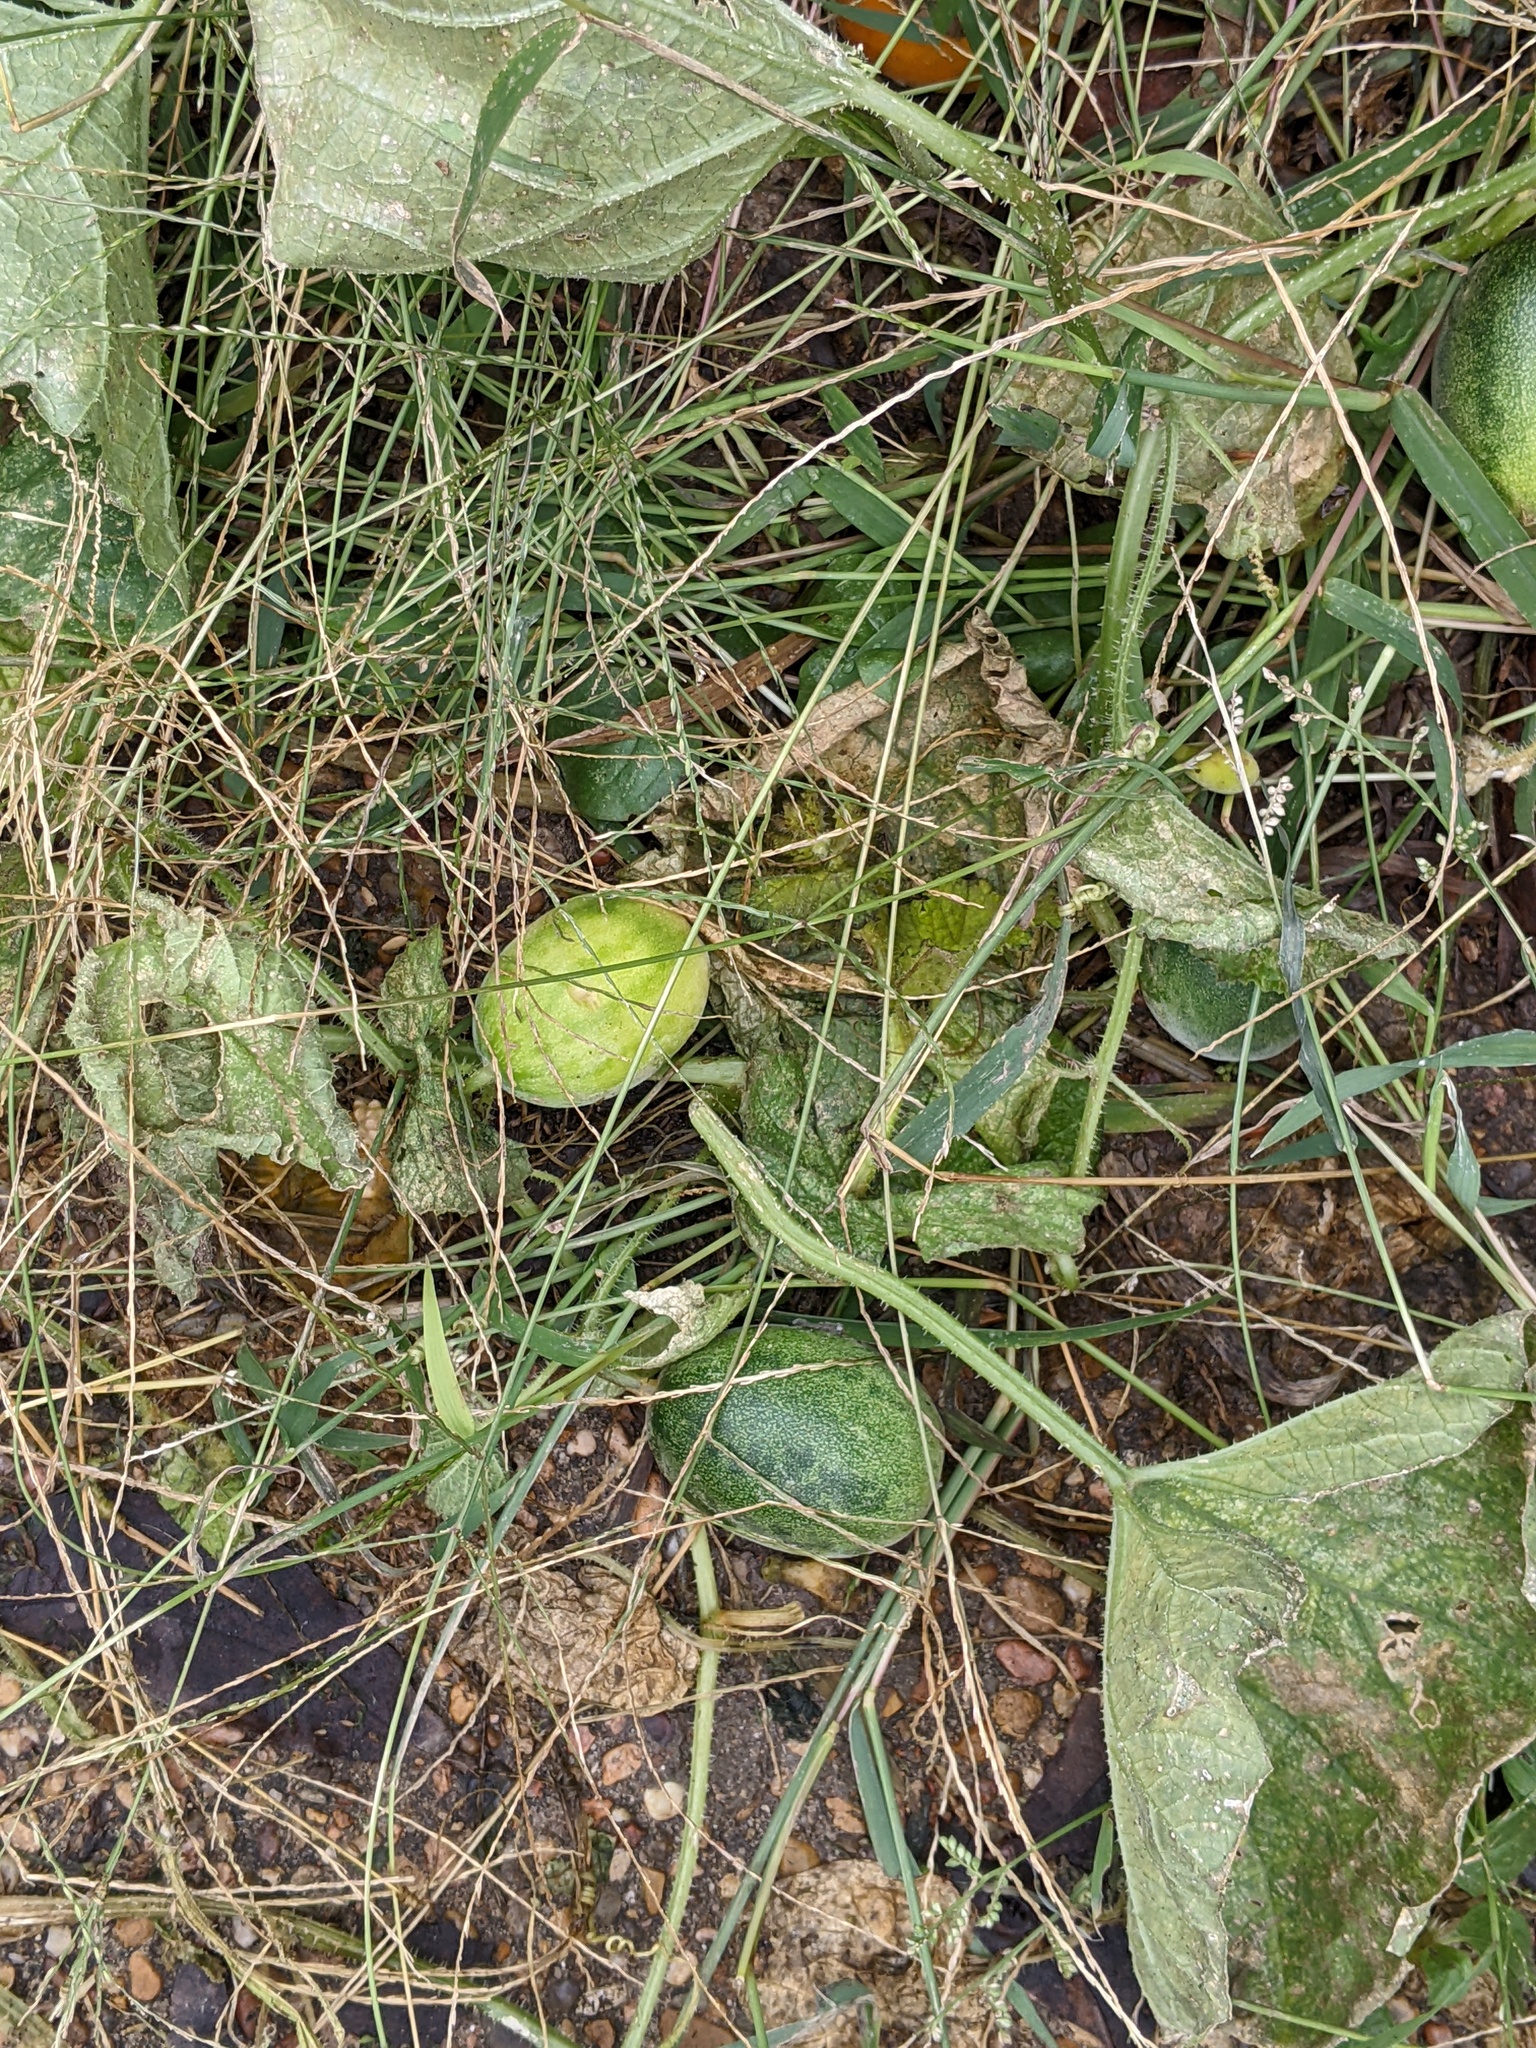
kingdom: Plantae
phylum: Tracheophyta
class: Magnoliopsida
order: Cucurbitales
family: Cucurbitaceae
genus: Cucumis
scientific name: Cucumis melo
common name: Melon
